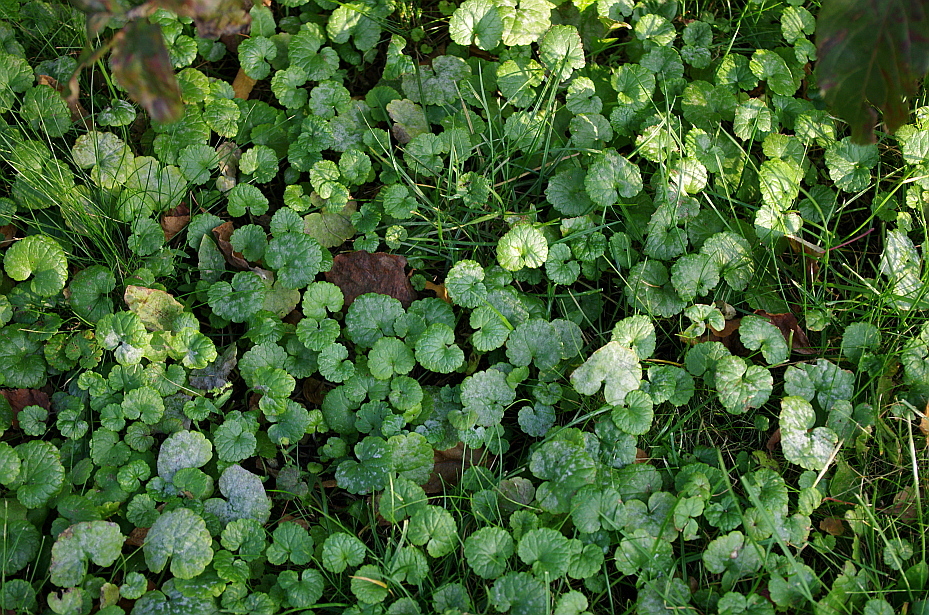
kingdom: Plantae
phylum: Tracheophyta
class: Magnoliopsida
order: Lamiales
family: Lamiaceae
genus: Glechoma
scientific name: Glechoma hederacea
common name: Ground ivy
